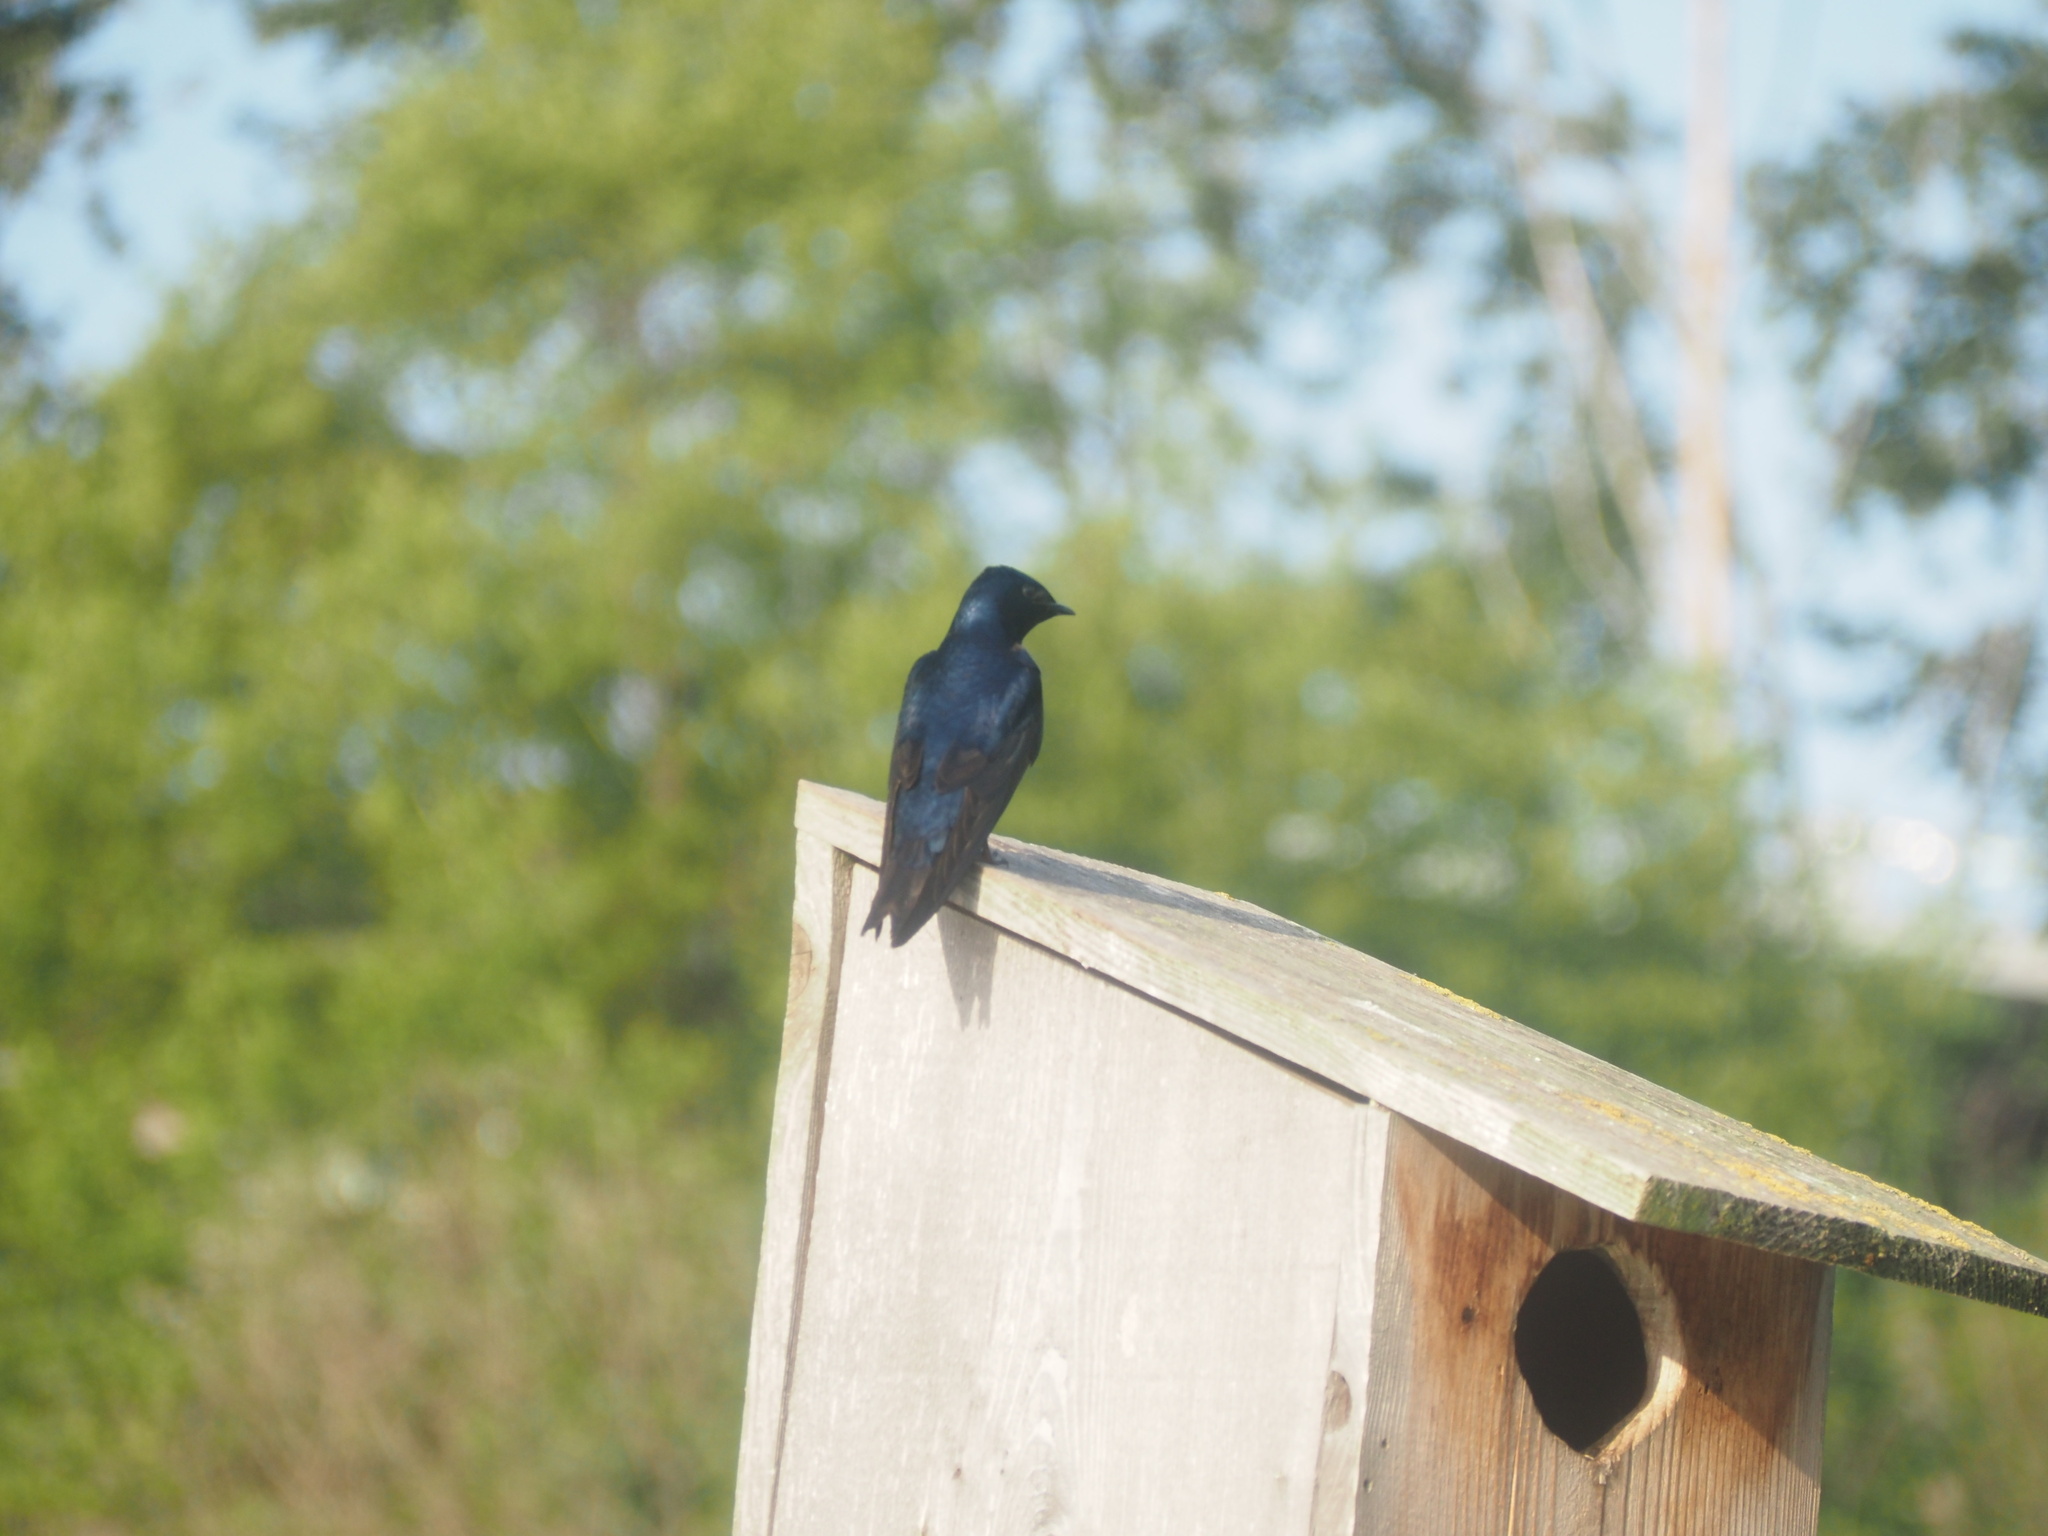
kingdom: Animalia
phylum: Chordata
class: Aves
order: Passeriformes
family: Hirundinidae
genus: Progne
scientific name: Progne subis
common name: Purple martin
